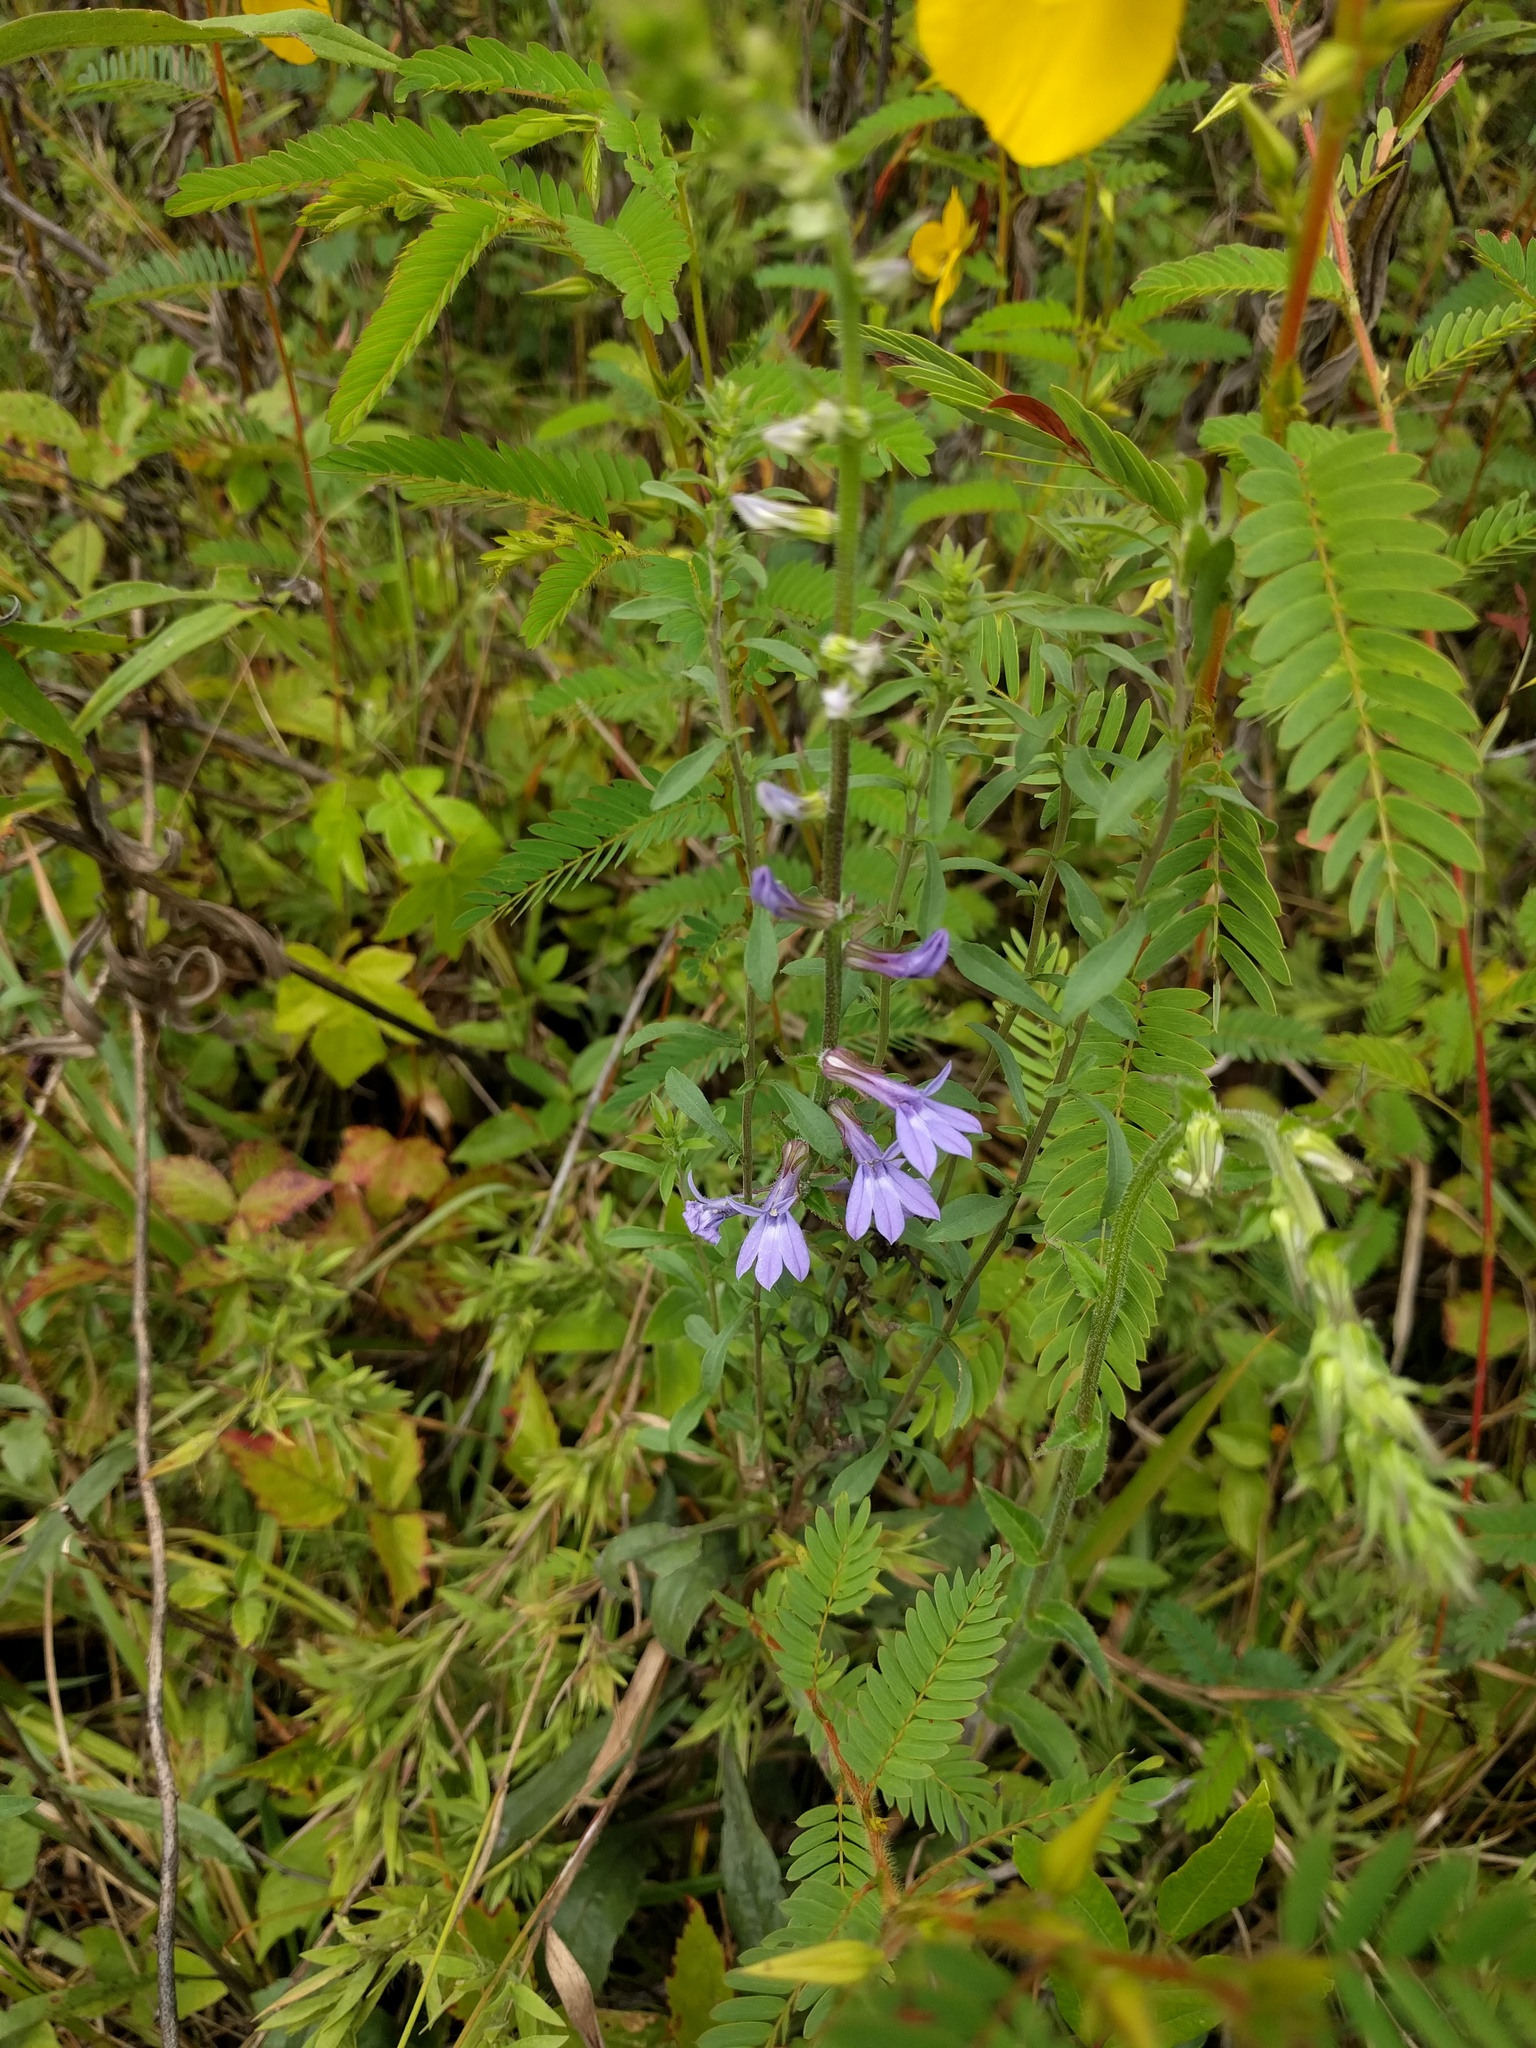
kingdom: Plantae
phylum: Tracheophyta
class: Magnoliopsida
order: Asterales
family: Campanulaceae
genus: Lobelia
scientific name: Lobelia puberula
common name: Purple dewdrop
